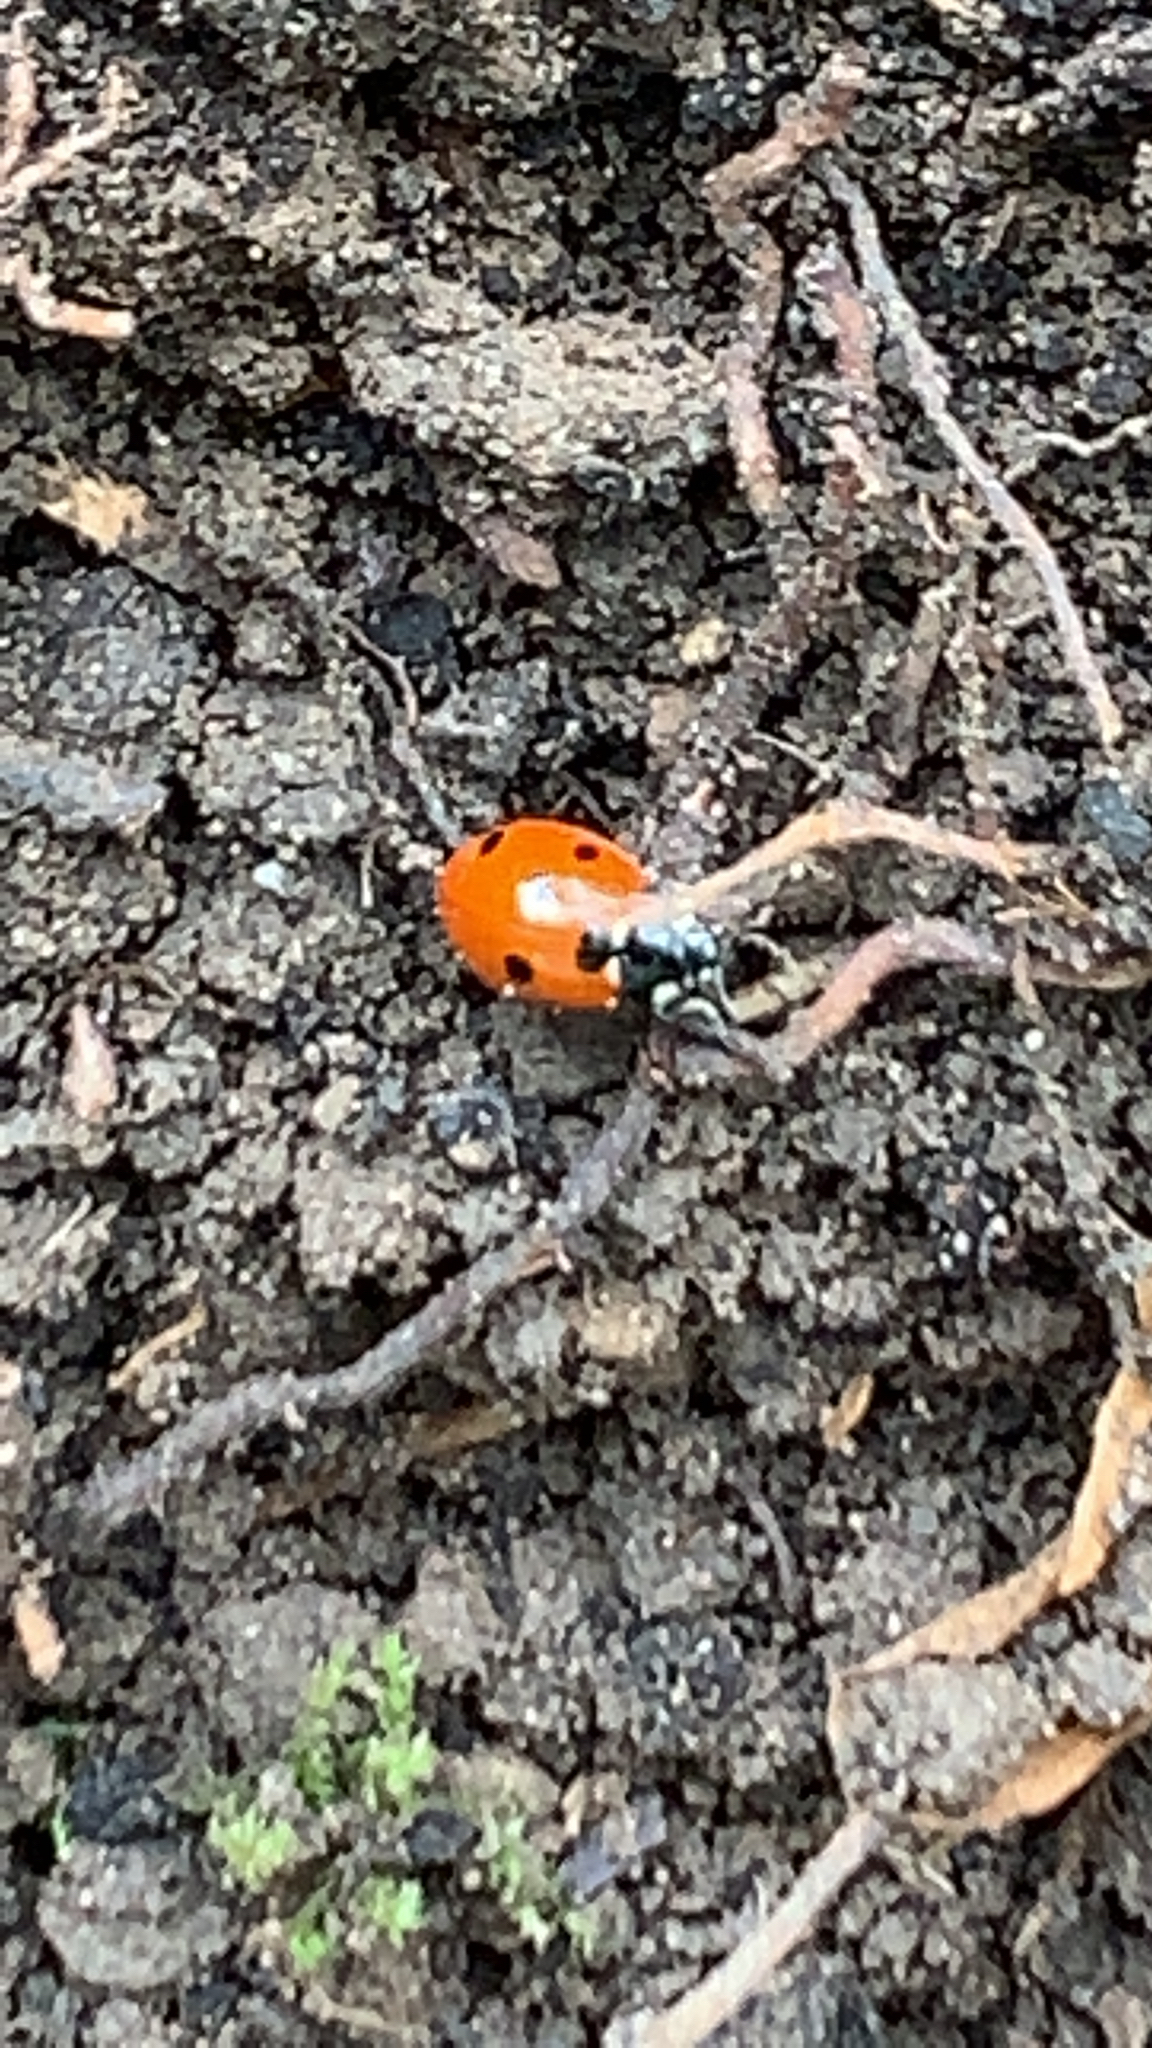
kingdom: Animalia
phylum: Arthropoda
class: Insecta
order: Coleoptera
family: Coccinellidae
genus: Coccinella
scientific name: Coccinella septempunctata
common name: Sevenspotted lady beetle
